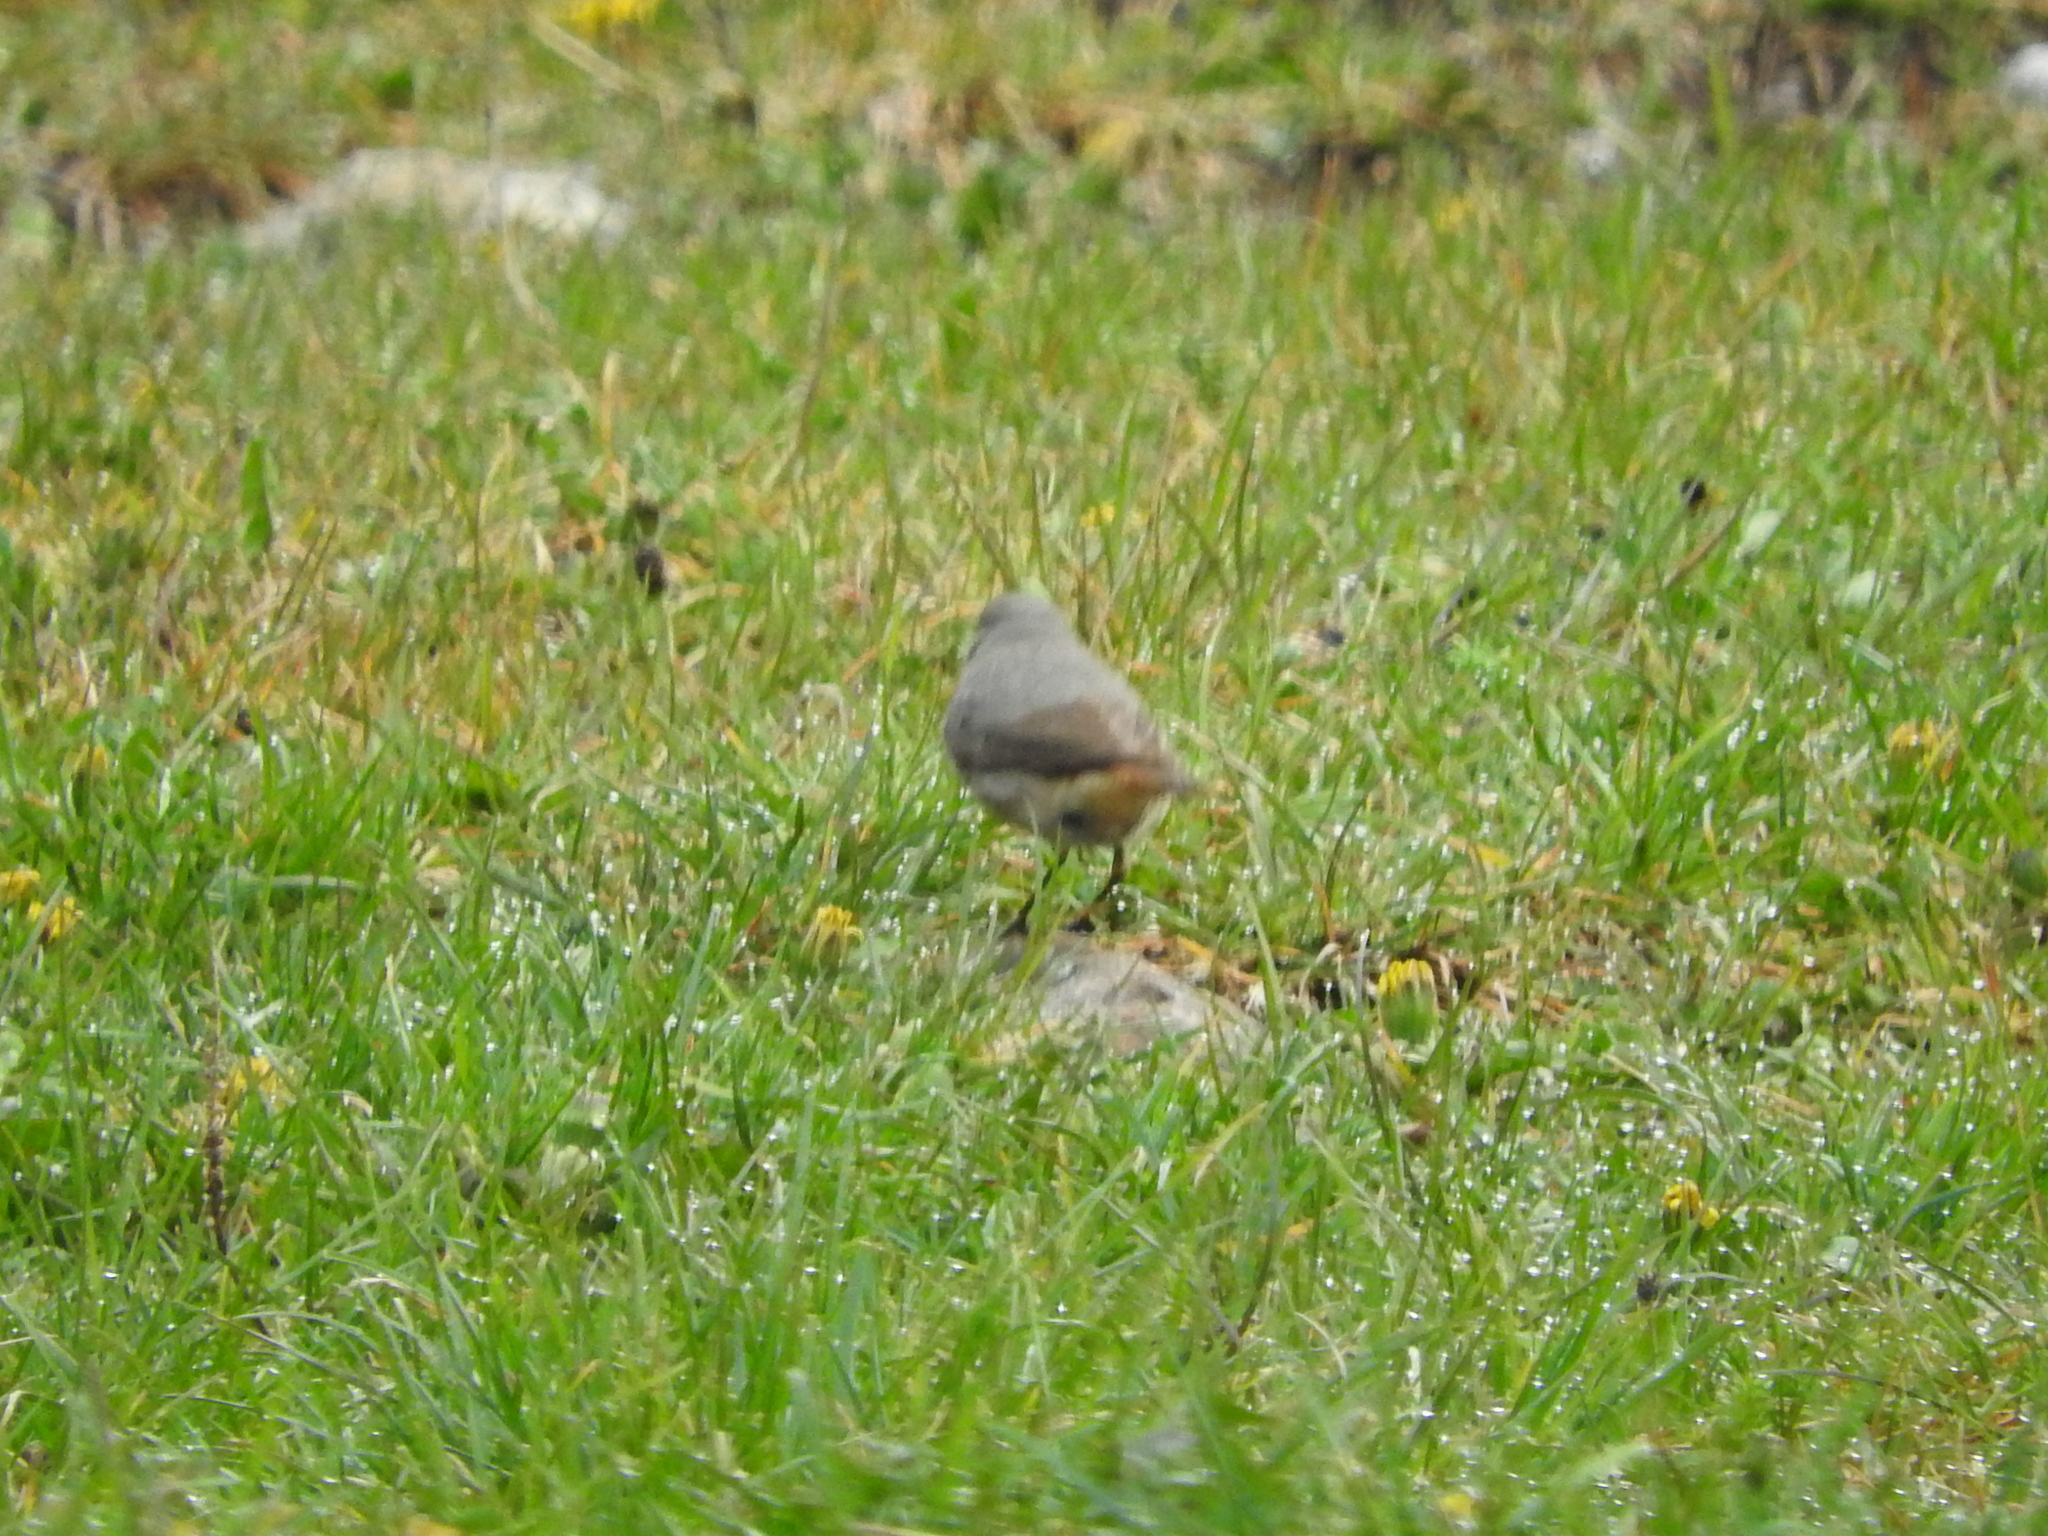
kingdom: Animalia
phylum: Chordata
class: Aves
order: Passeriformes
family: Muscicapidae
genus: Phoenicurus
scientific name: Phoenicurus ochruros
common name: Black redstart
